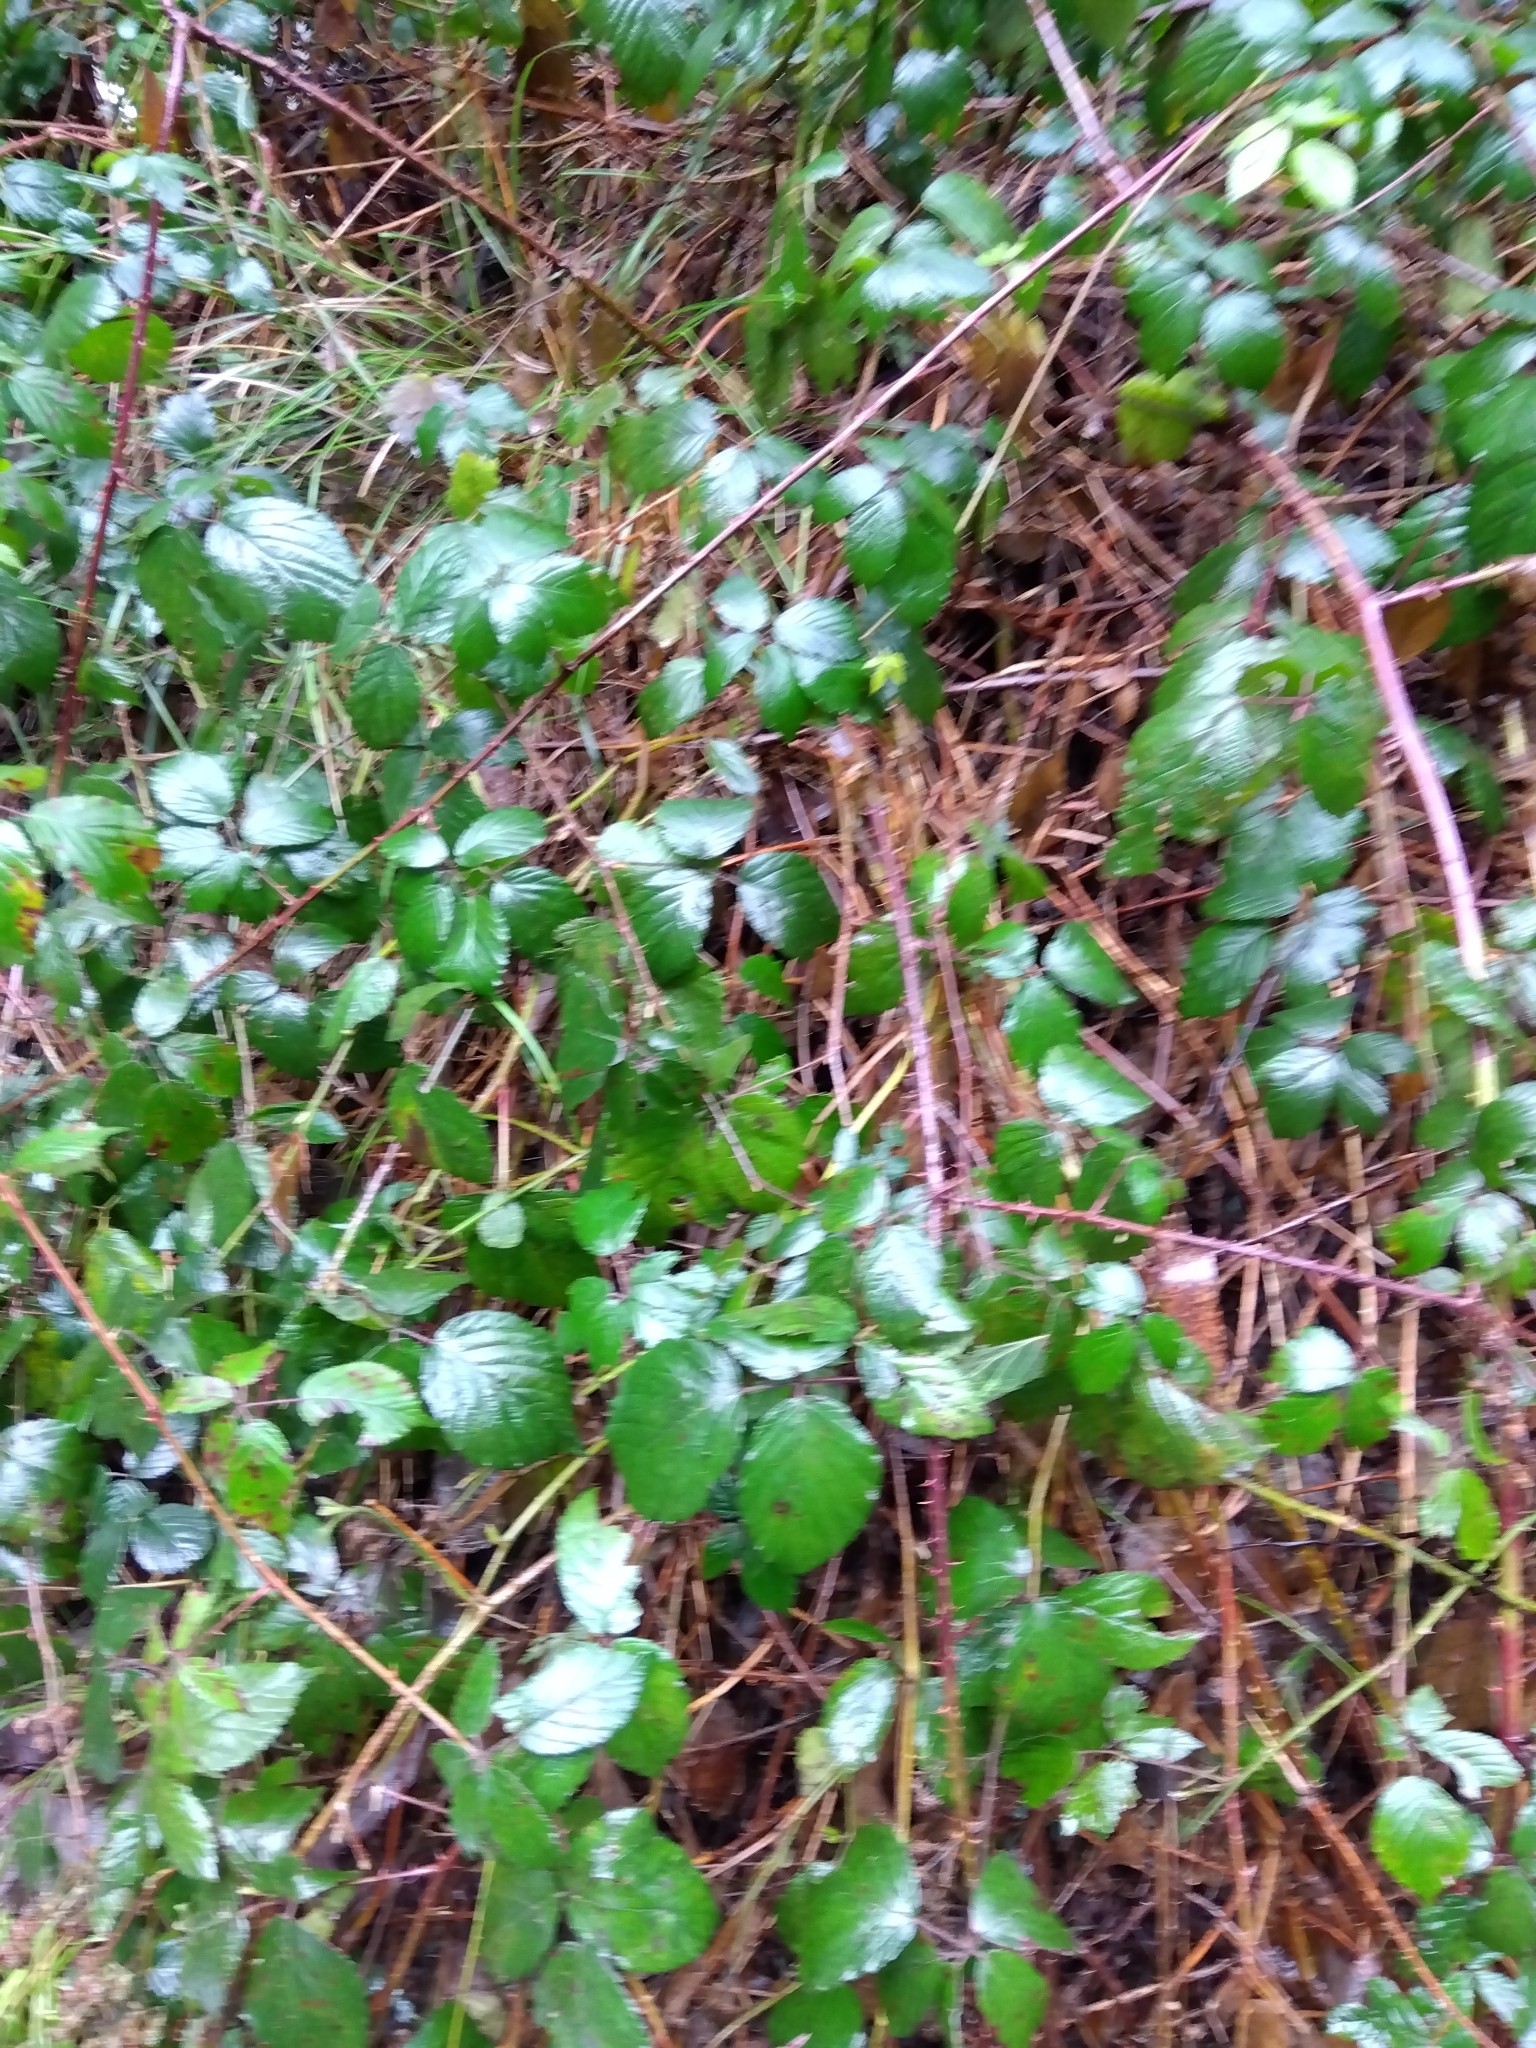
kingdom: Plantae
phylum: Tracheophyta
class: Magnoliopsida
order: Rosales
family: Rosaceae
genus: Rubus
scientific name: Rubus ulmifolius
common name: Elmleaf blackberry
